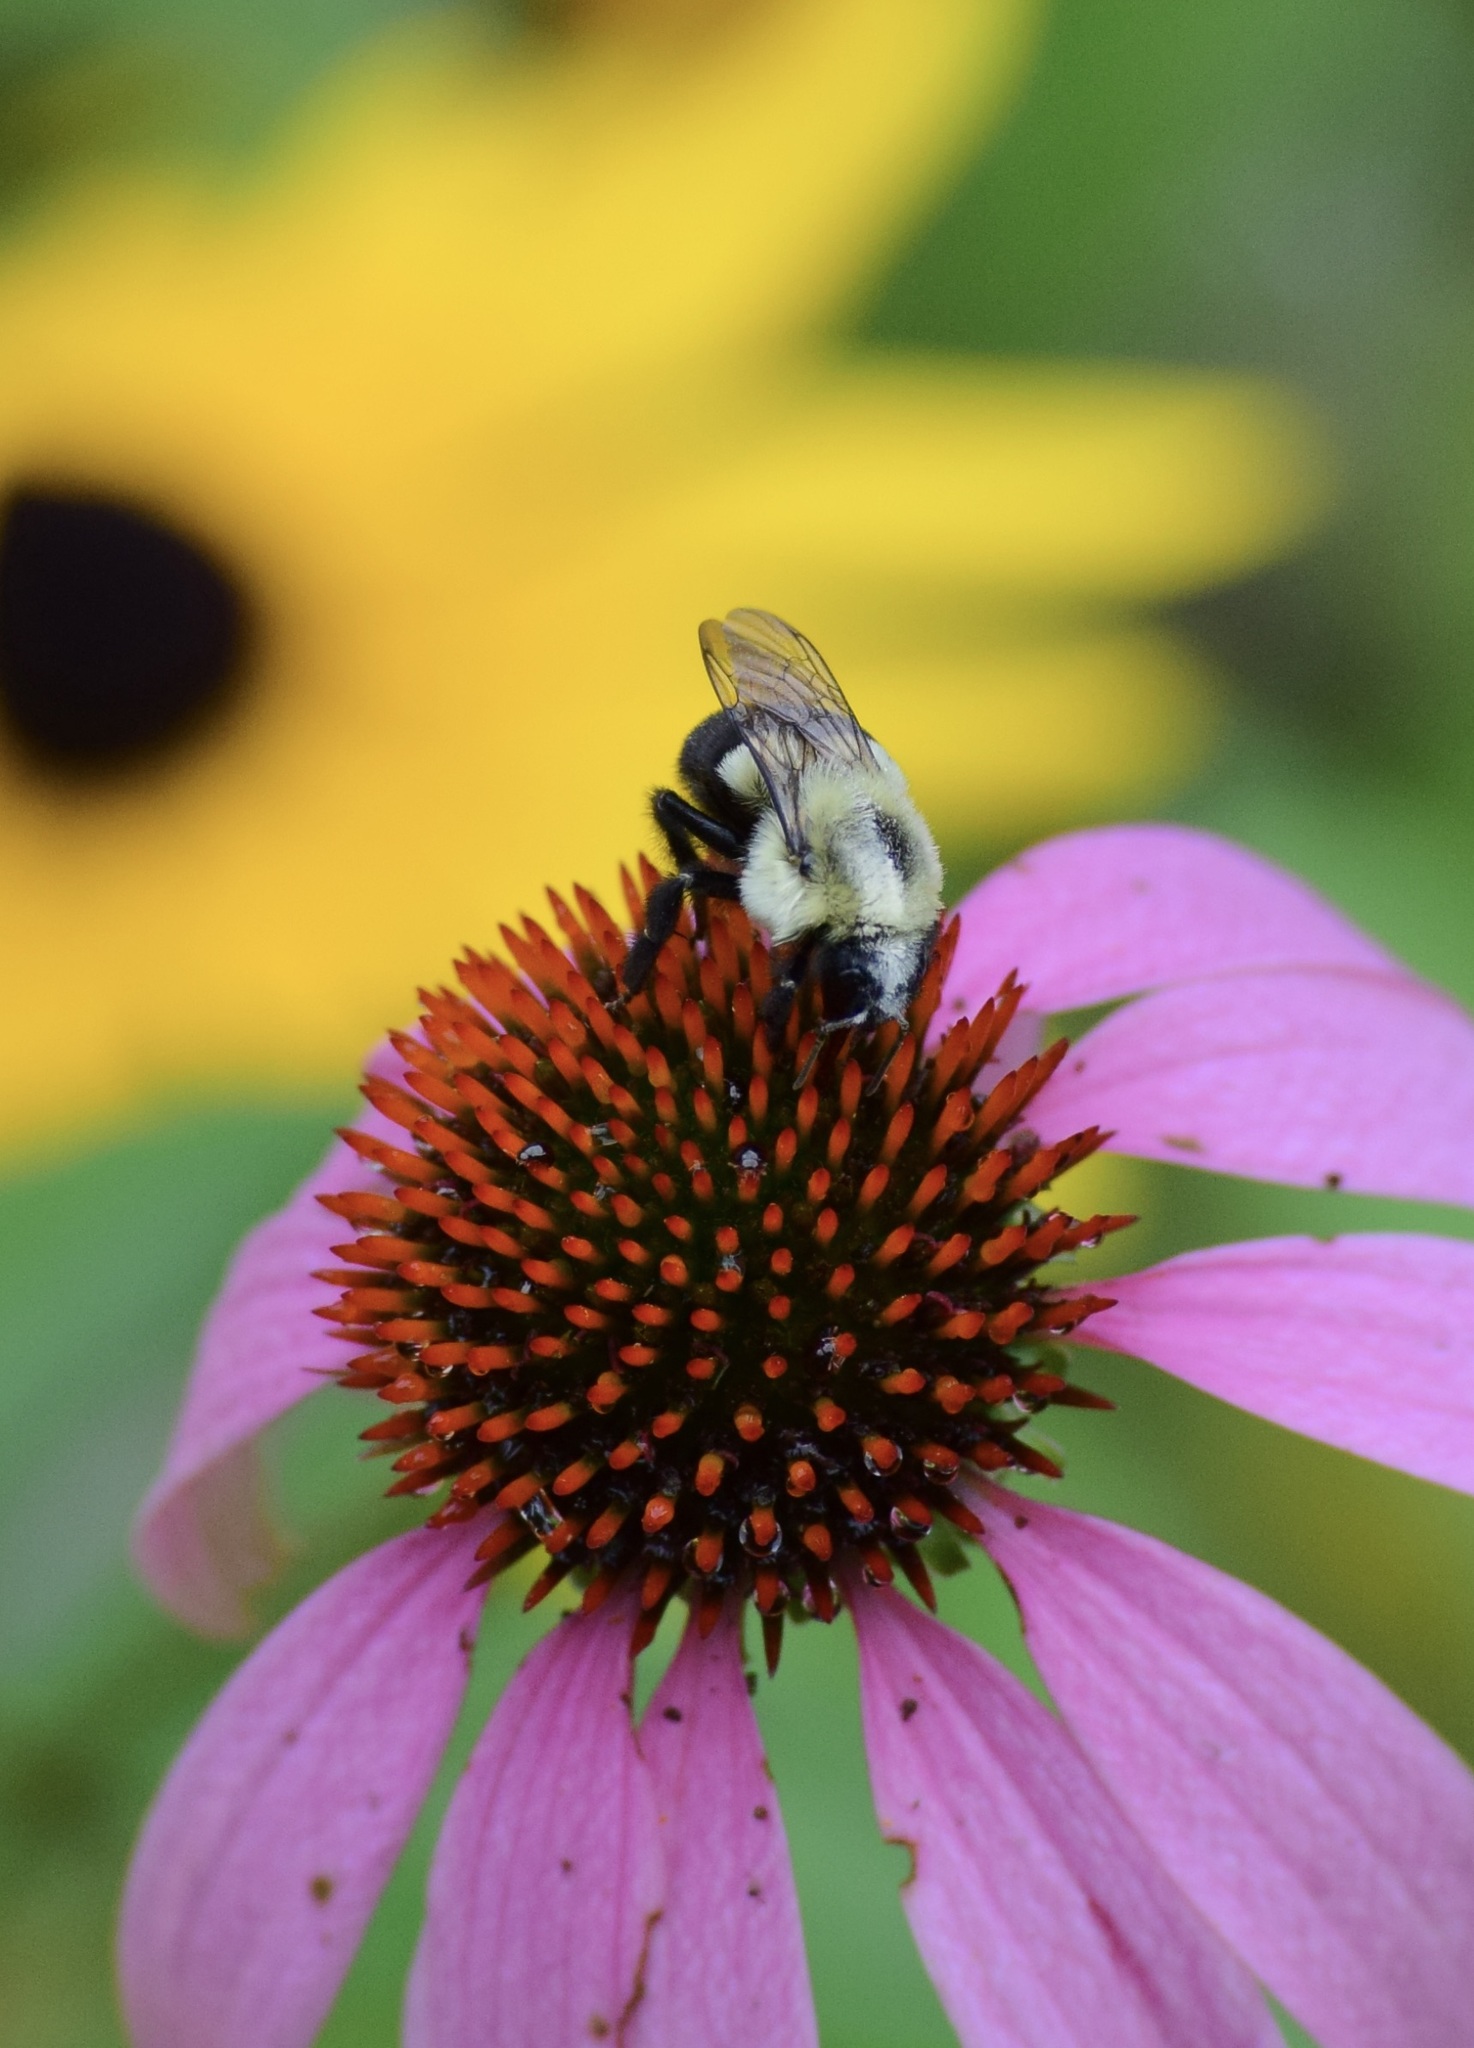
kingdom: Animalia
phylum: Arthropoda
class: Insecta
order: Hymenoptera
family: Apidae
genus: Bombus
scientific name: Bombus impatiens
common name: Common eastern bumble bee
